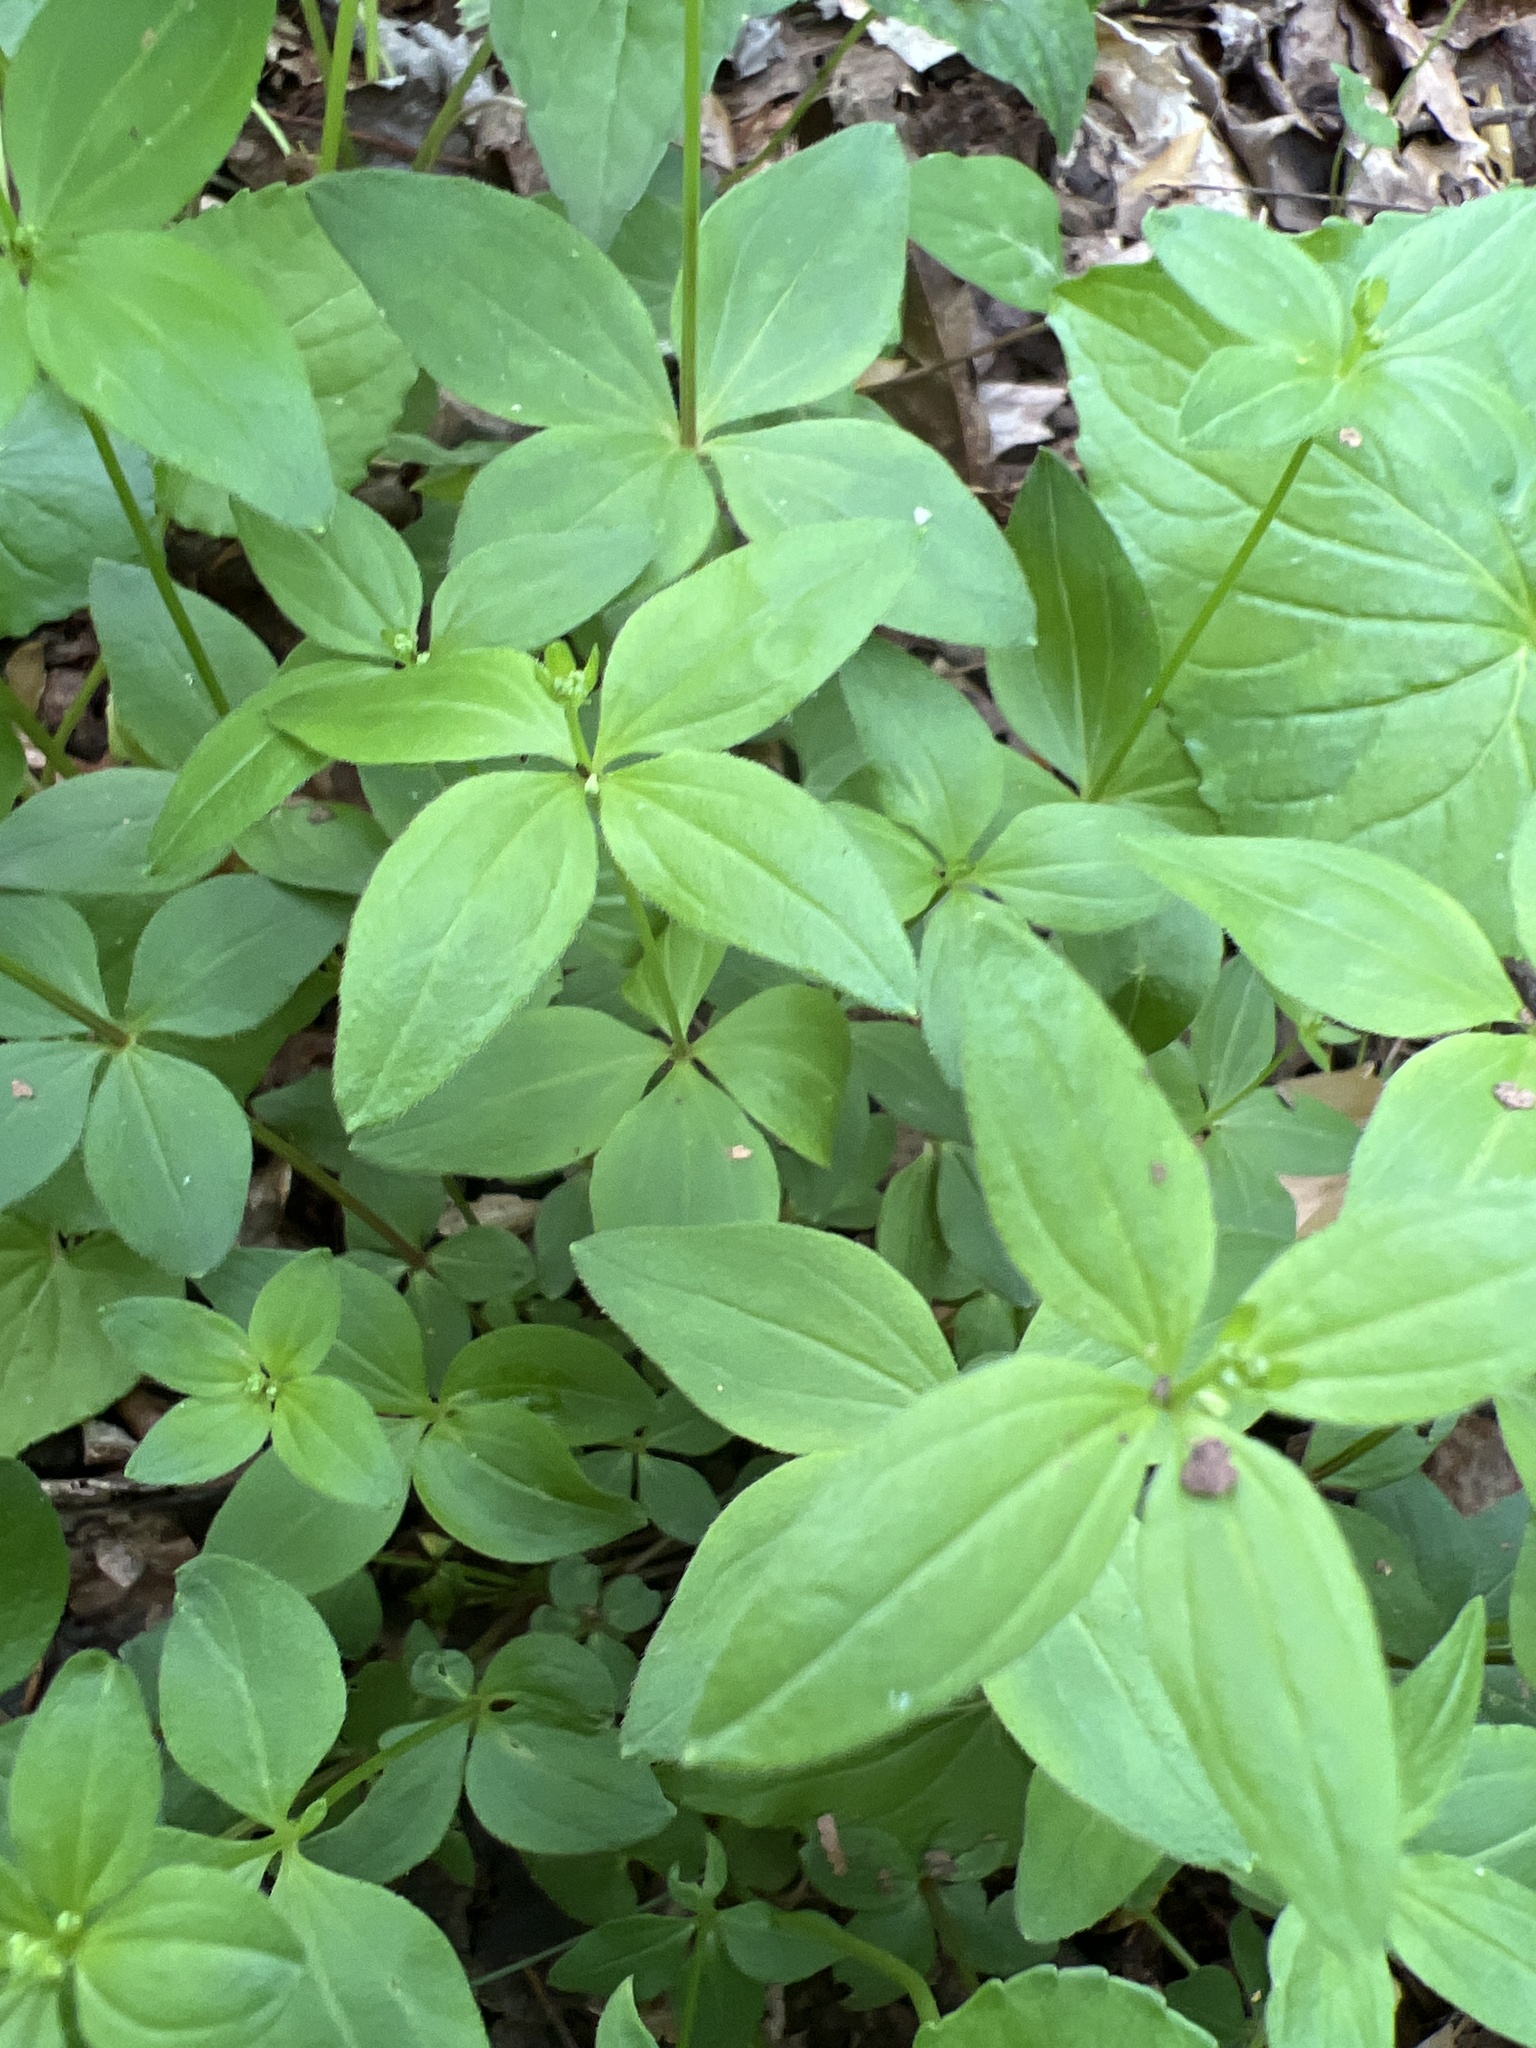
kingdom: Plantae
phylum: Tracheophyta
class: Magnoliopsida
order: Gentianales
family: Rubiaceae
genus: Galium
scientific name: Galium circaezans
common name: Forest bedstraw
